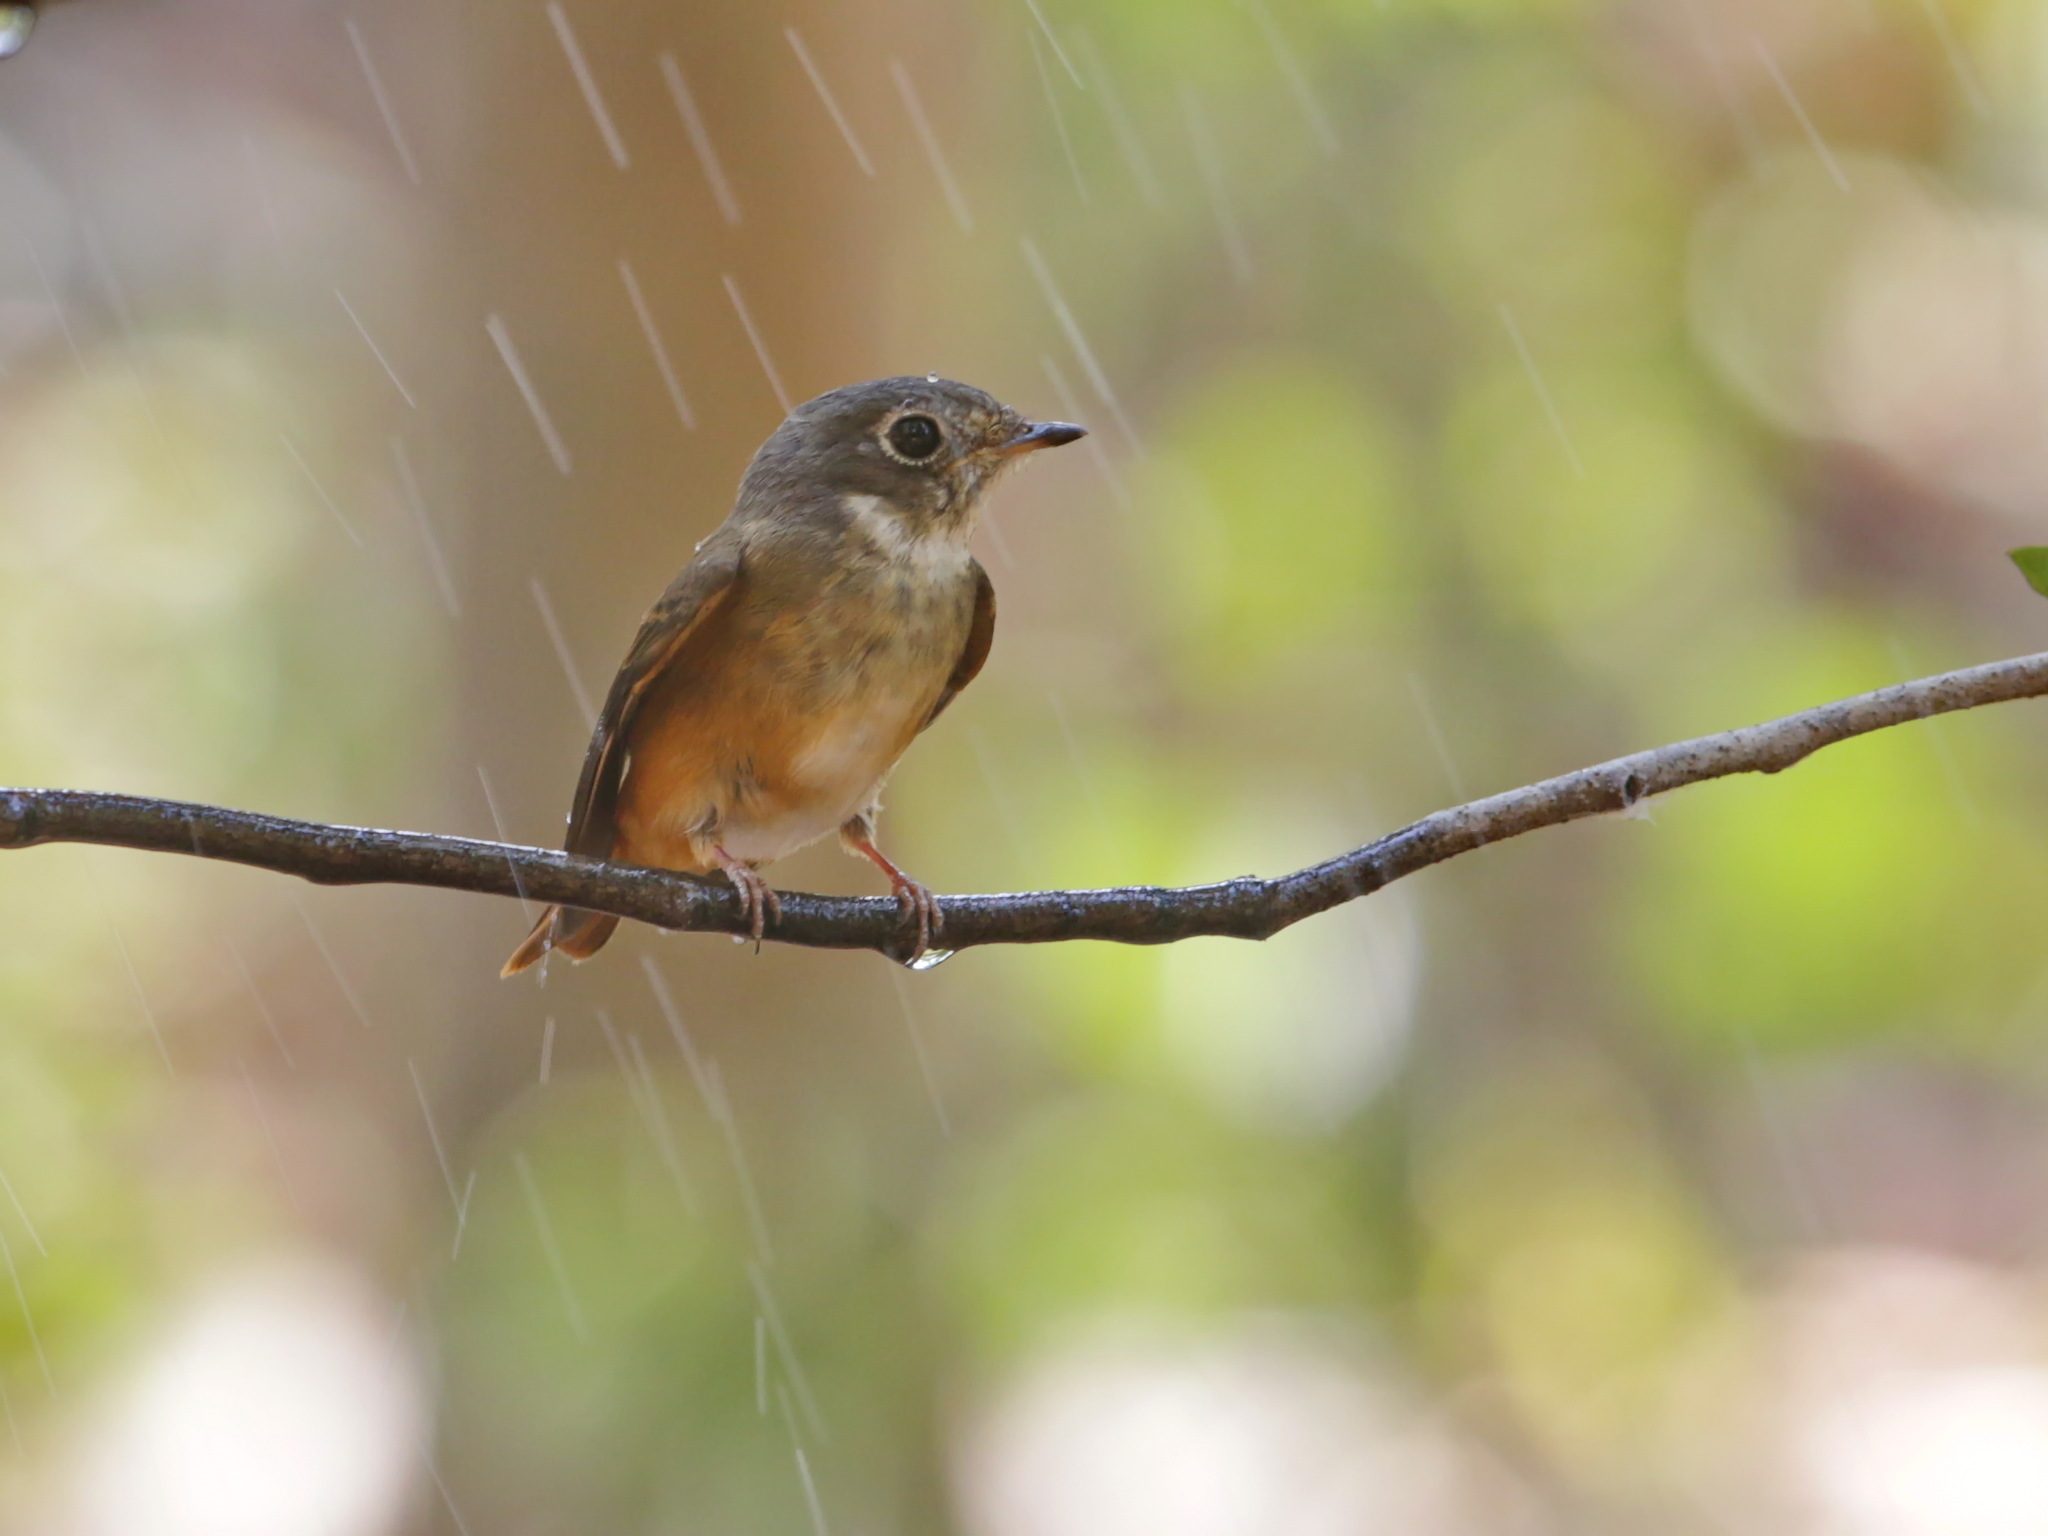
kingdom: Animalia
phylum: Chordata
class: Aves
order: Passeriformes
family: Muscicapidae
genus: Muscicapa
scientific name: Muscicapa ferruginea
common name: Ferruginous flycatcher
